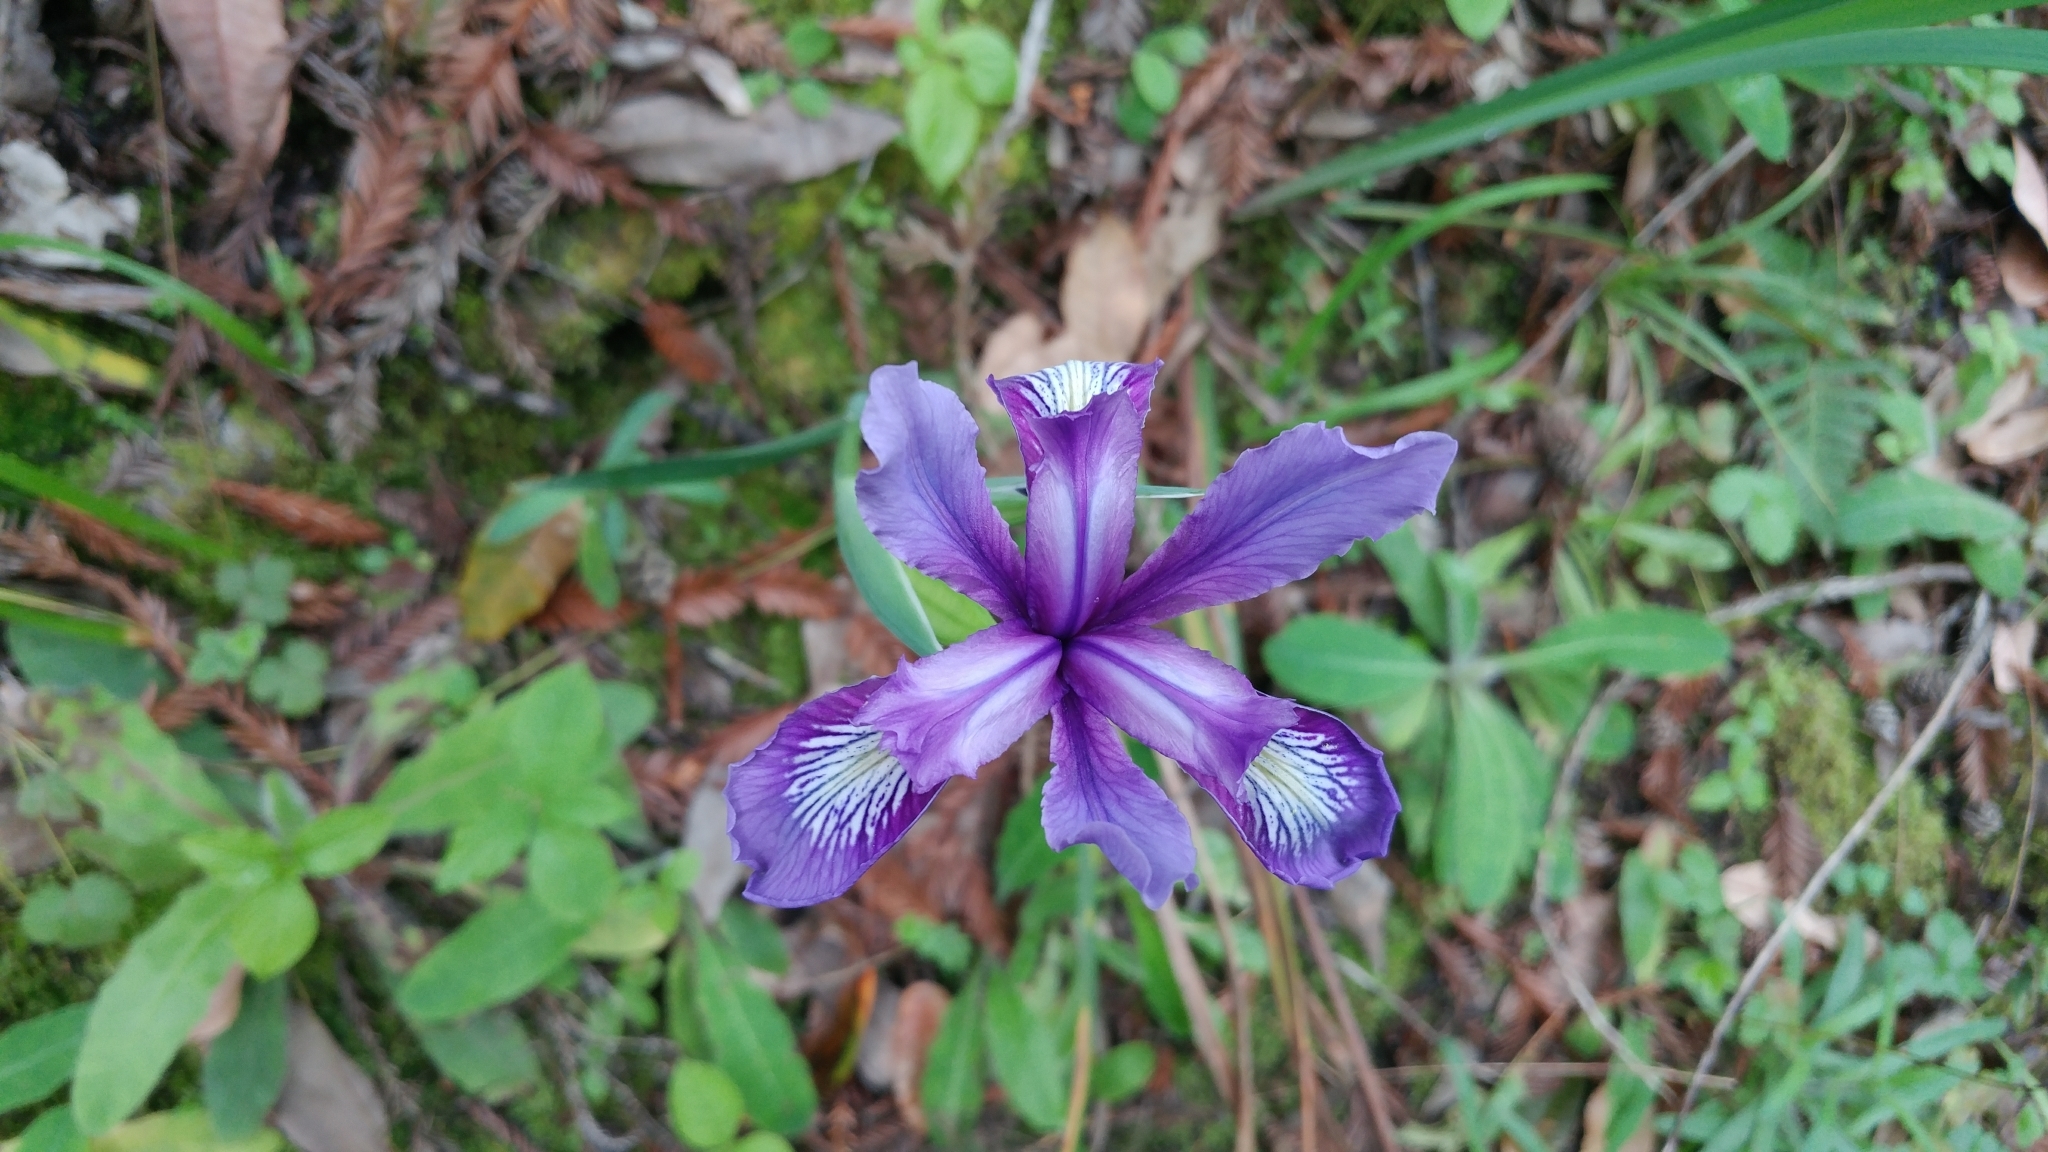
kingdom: Plantae
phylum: Tracheophyta
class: Liliopsida
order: Asparagales
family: Iridaceae
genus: Iris
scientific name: Iris douglasiana
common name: Marin iris
